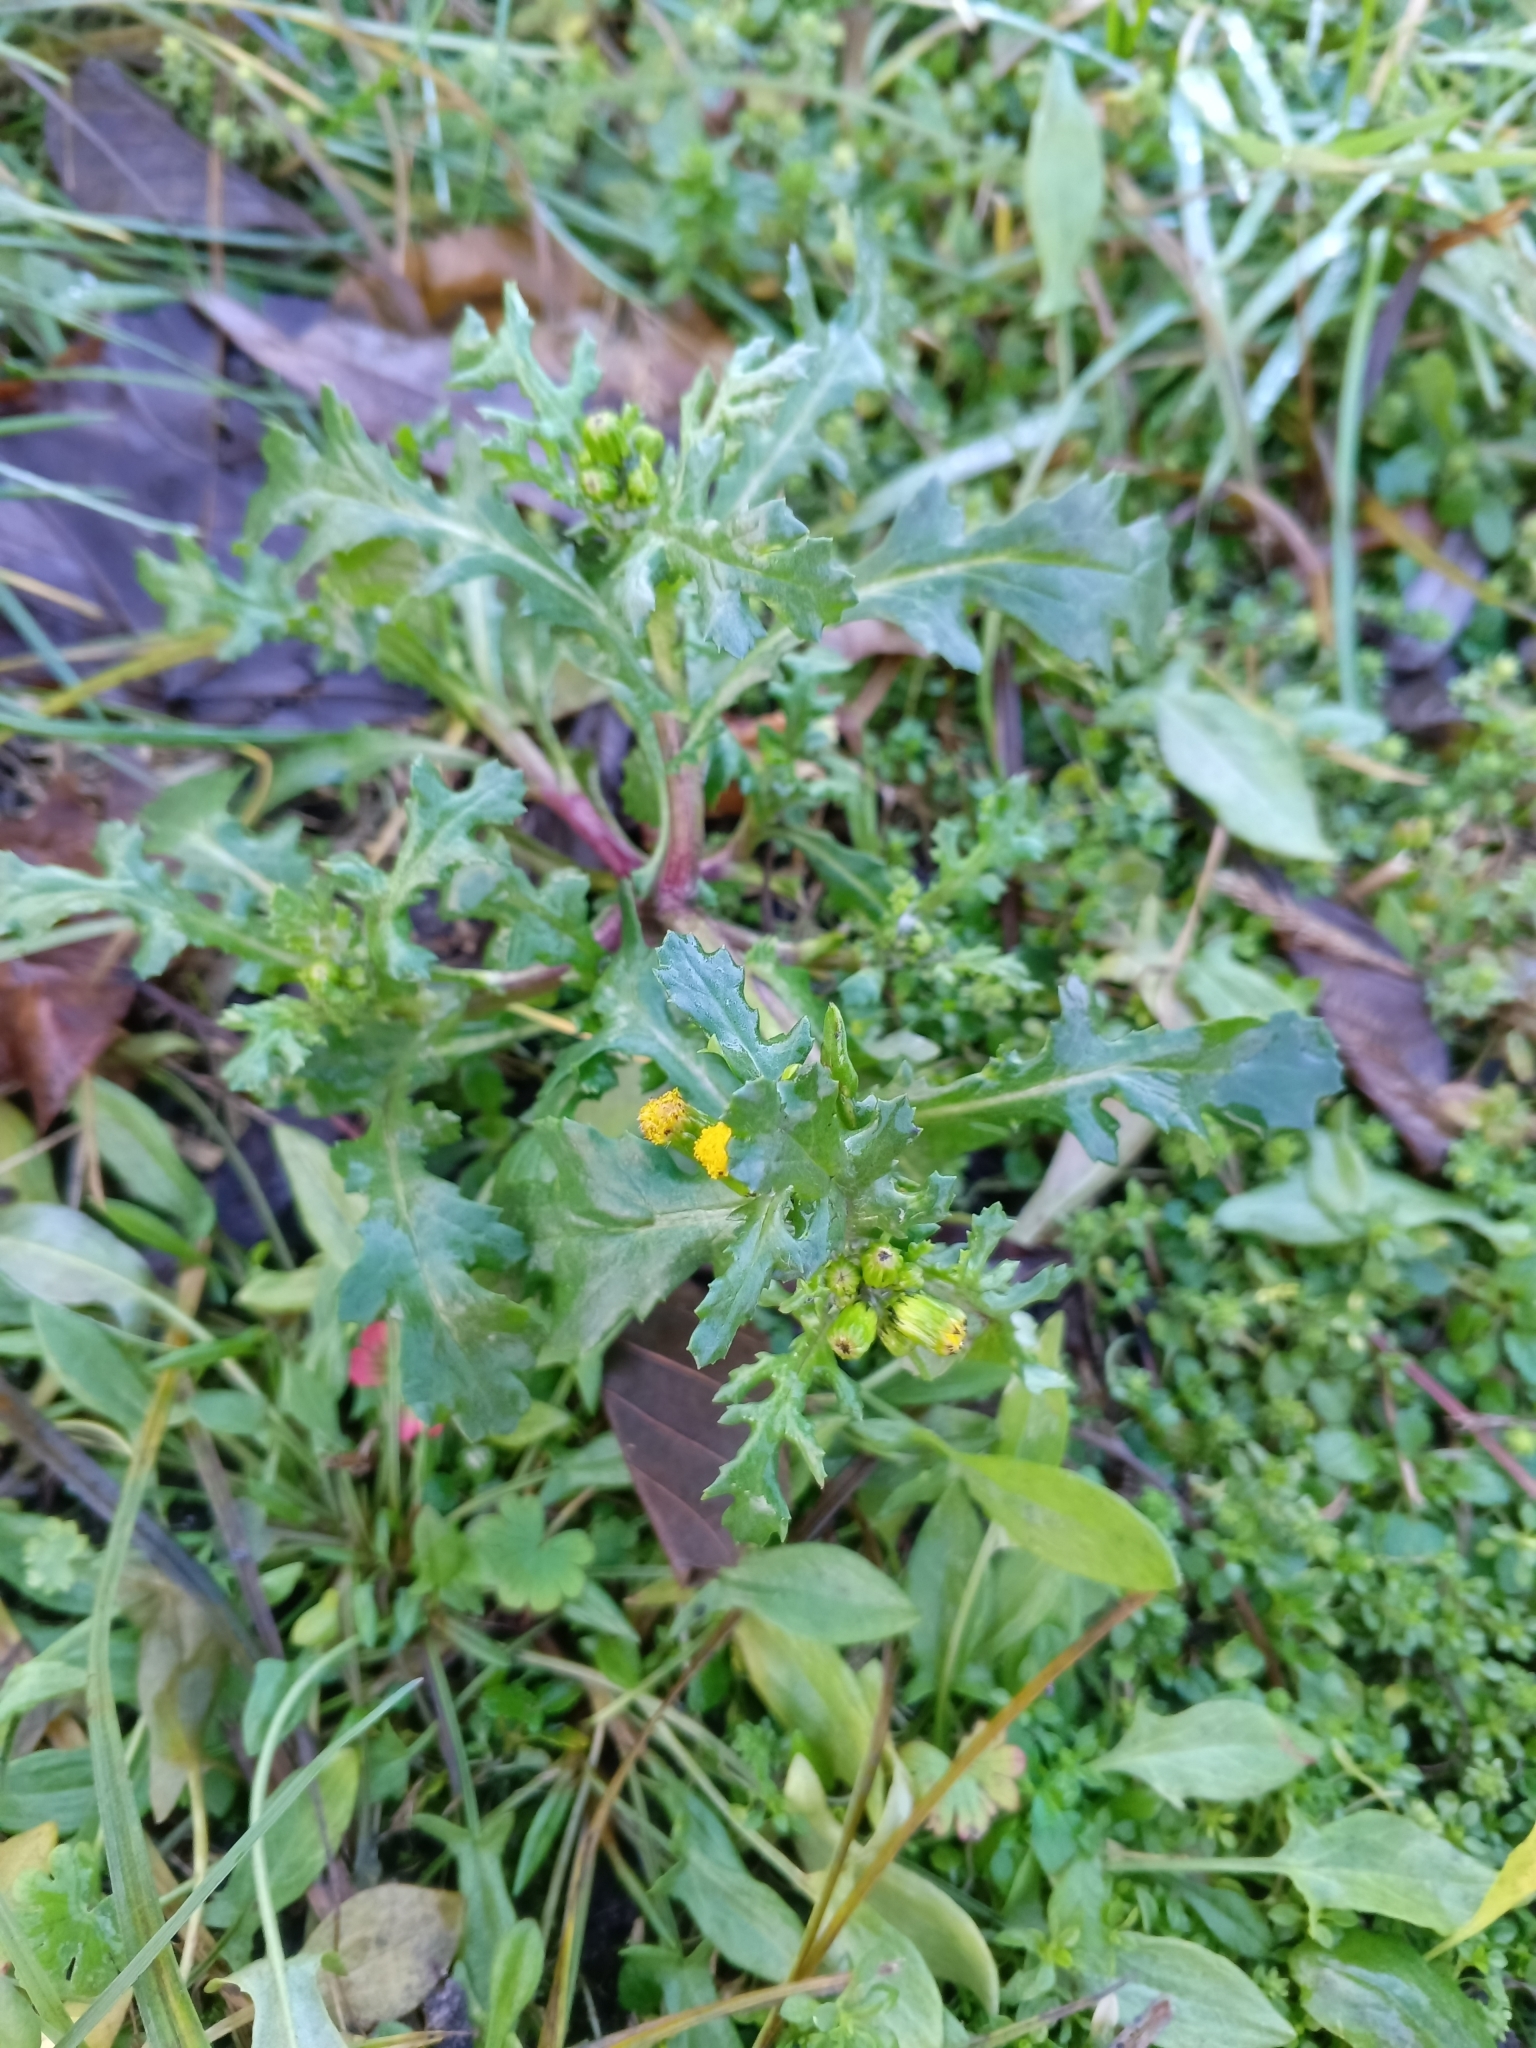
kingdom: Plantae
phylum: Tracheophyta
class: Magnoliopsida
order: Asterales
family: Asteraceae
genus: Senecio
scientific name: Senecio vulgaris
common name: Old-man-in-the-spring
